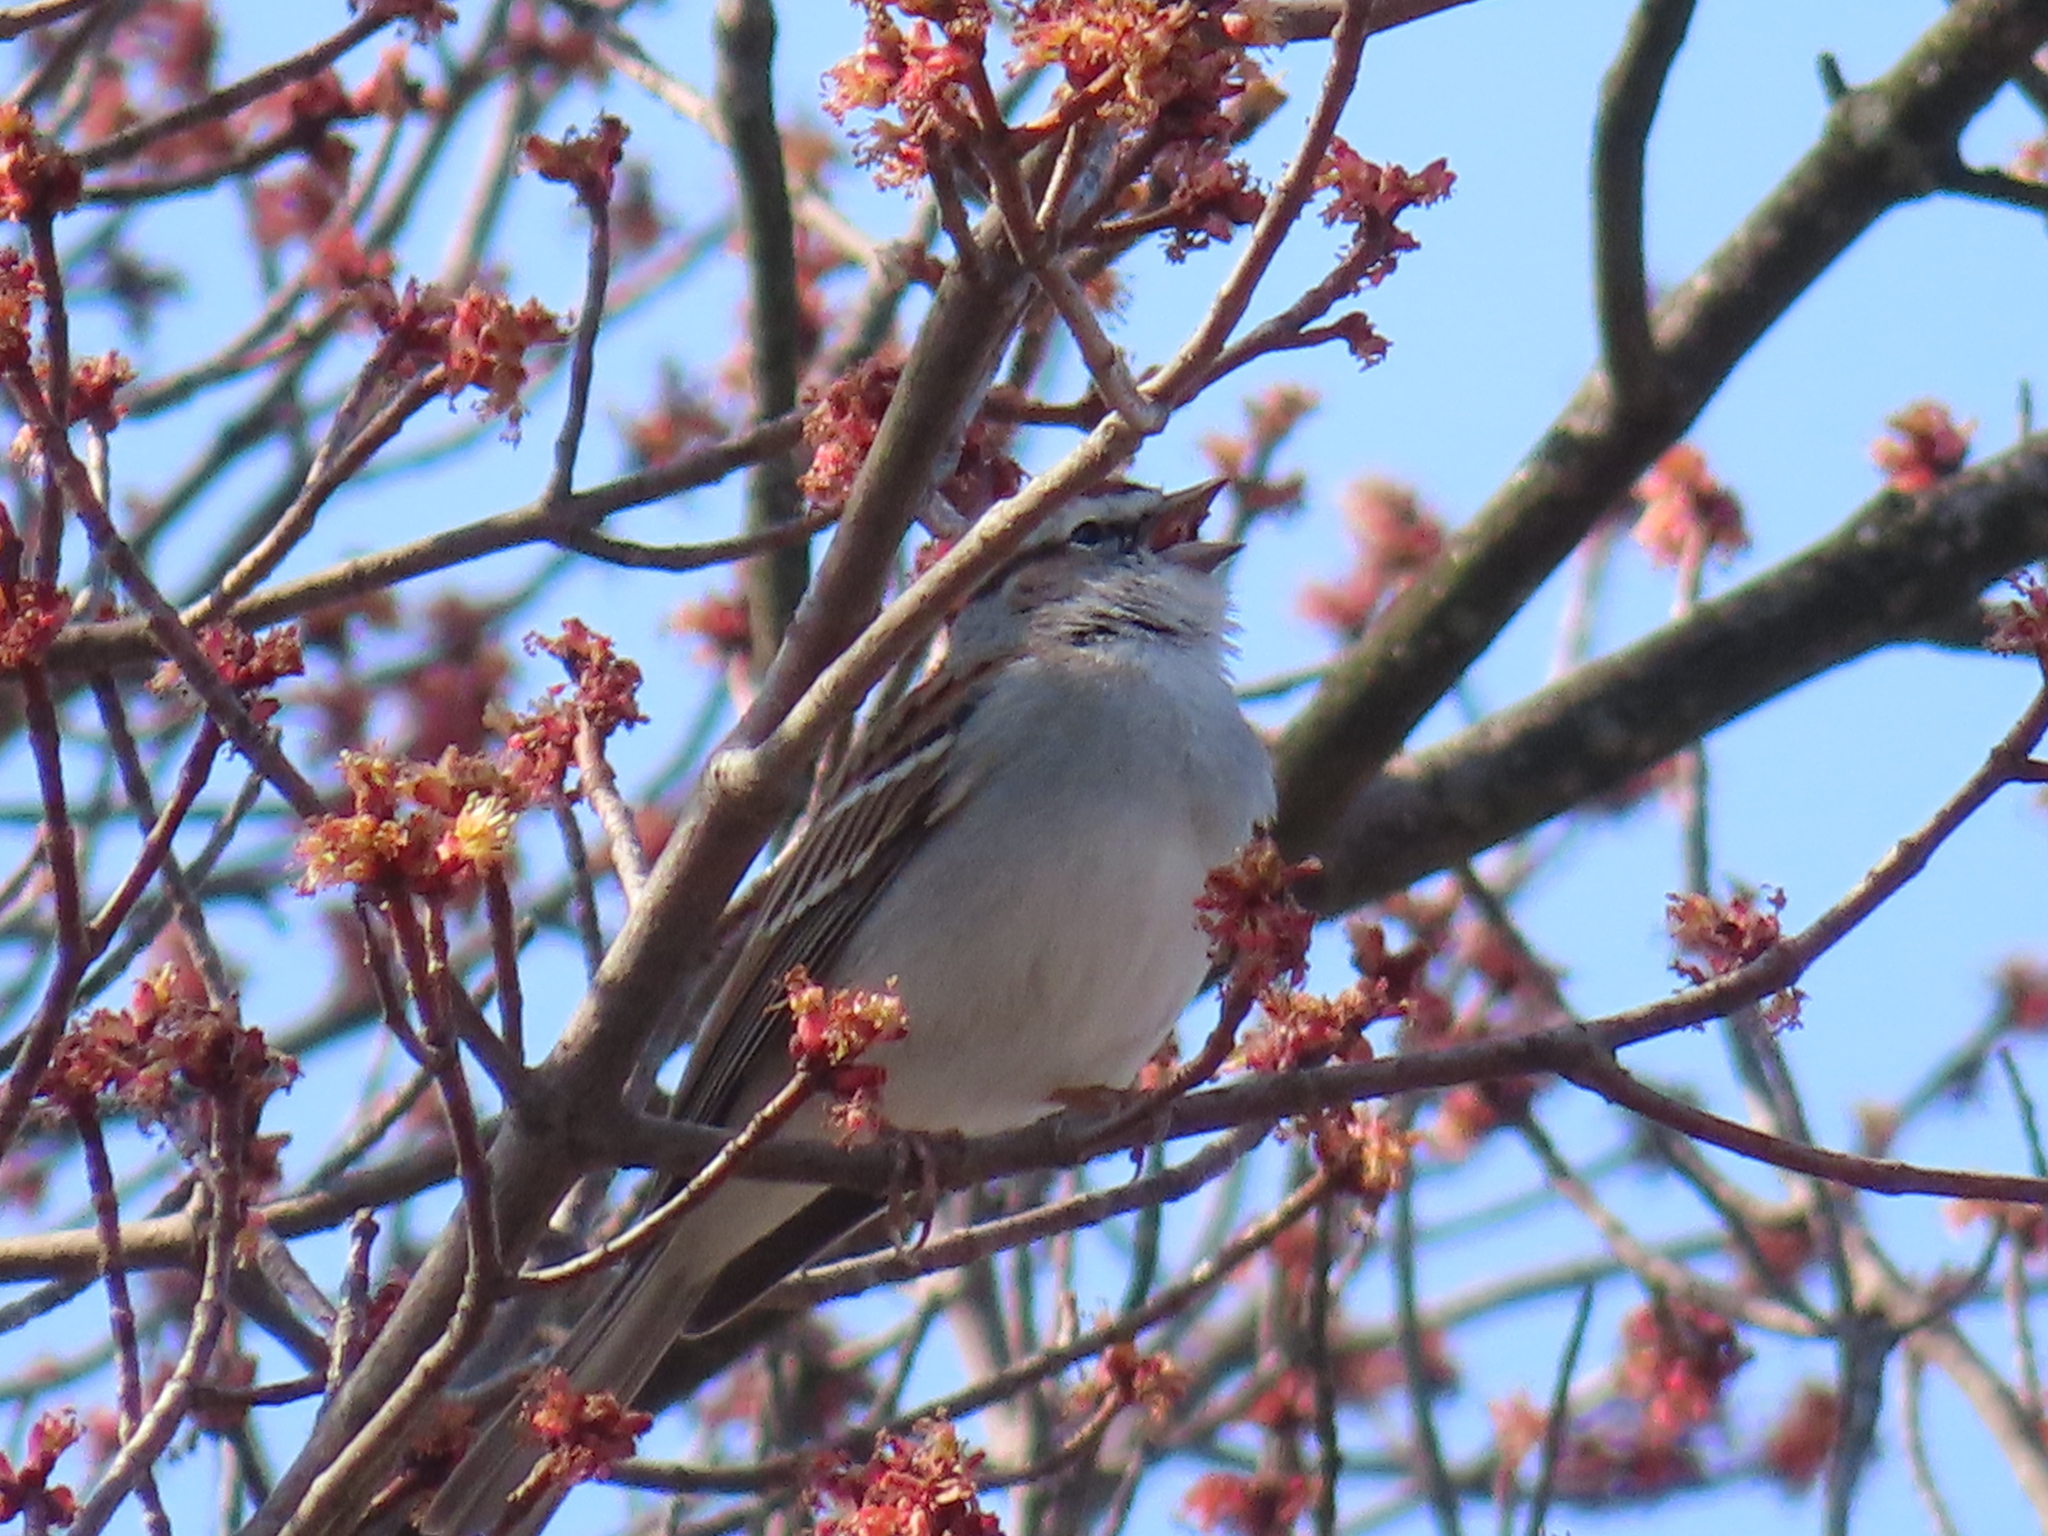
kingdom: Animalia
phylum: Chordata
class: Aves
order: Passeriformes
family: Passerellidae
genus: Spizella
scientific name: Spizella passerina
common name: Chipping sparrow
